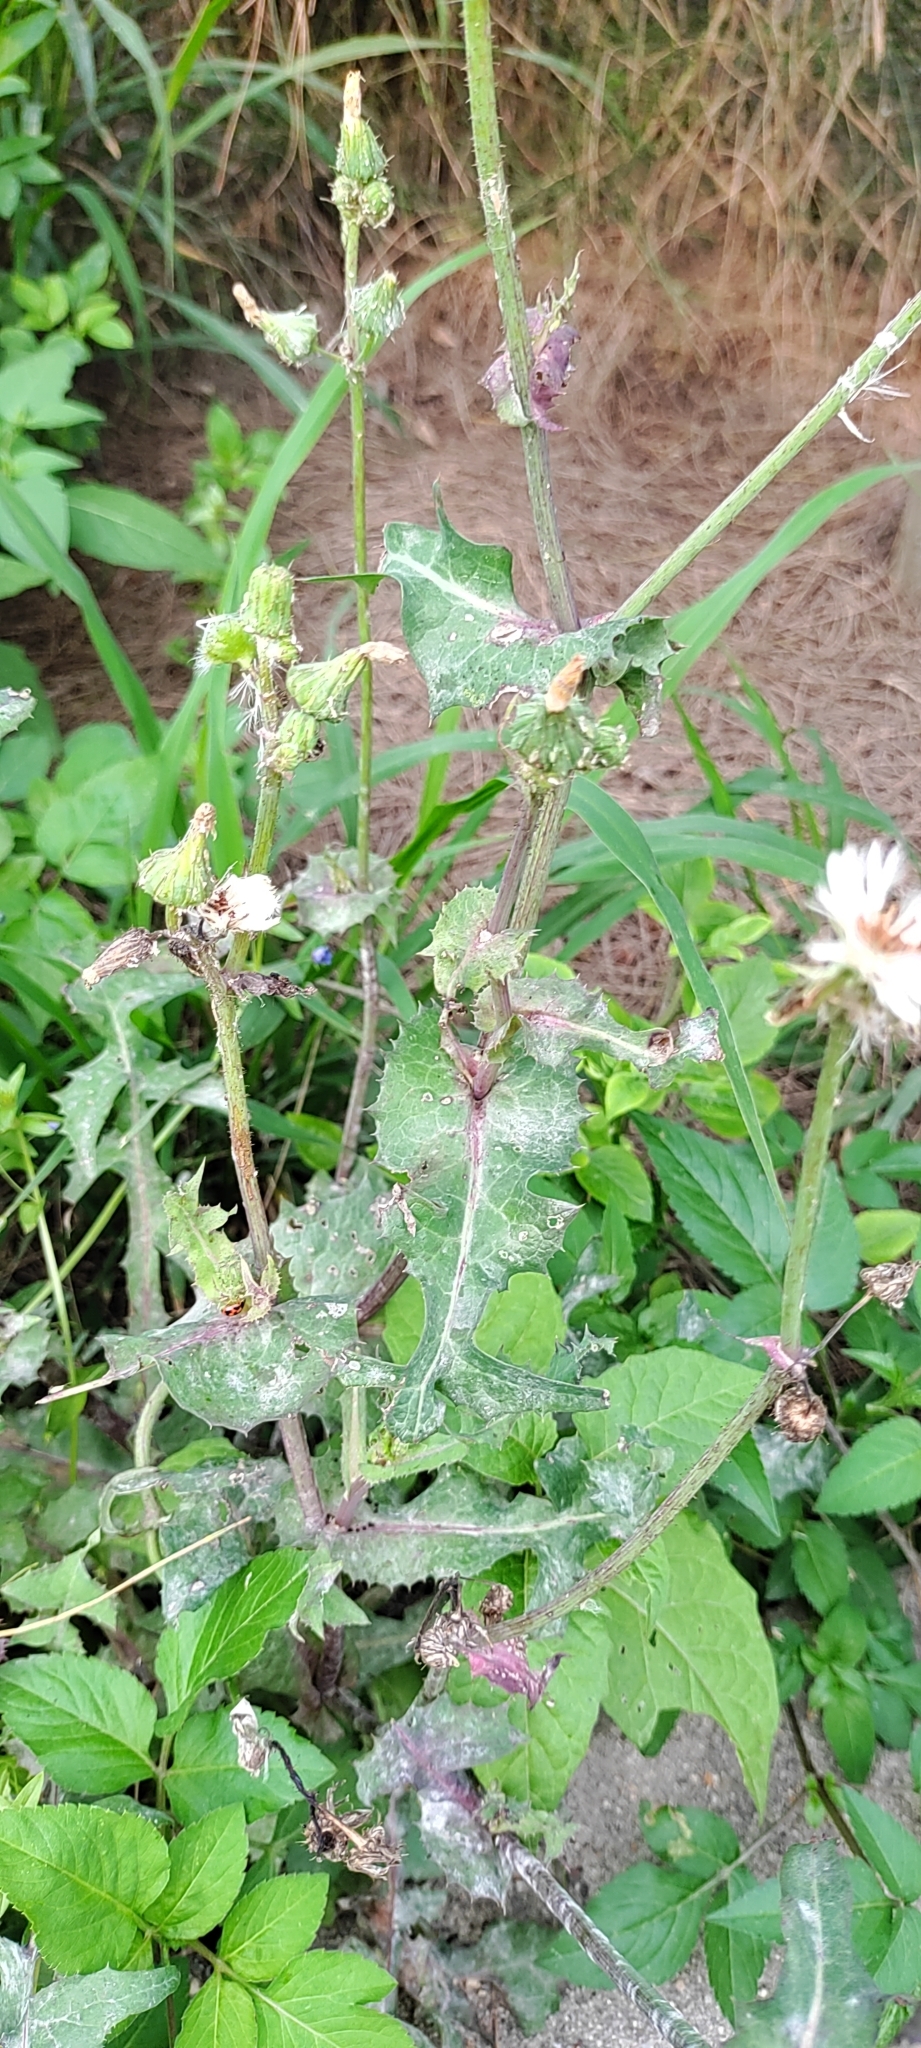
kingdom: Plantae
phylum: Tracheophyta
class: Magnoliopsida
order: Asterales
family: Asteraceae
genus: Sonchus
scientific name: Sonchus oleraceus
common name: Common sowthistle
